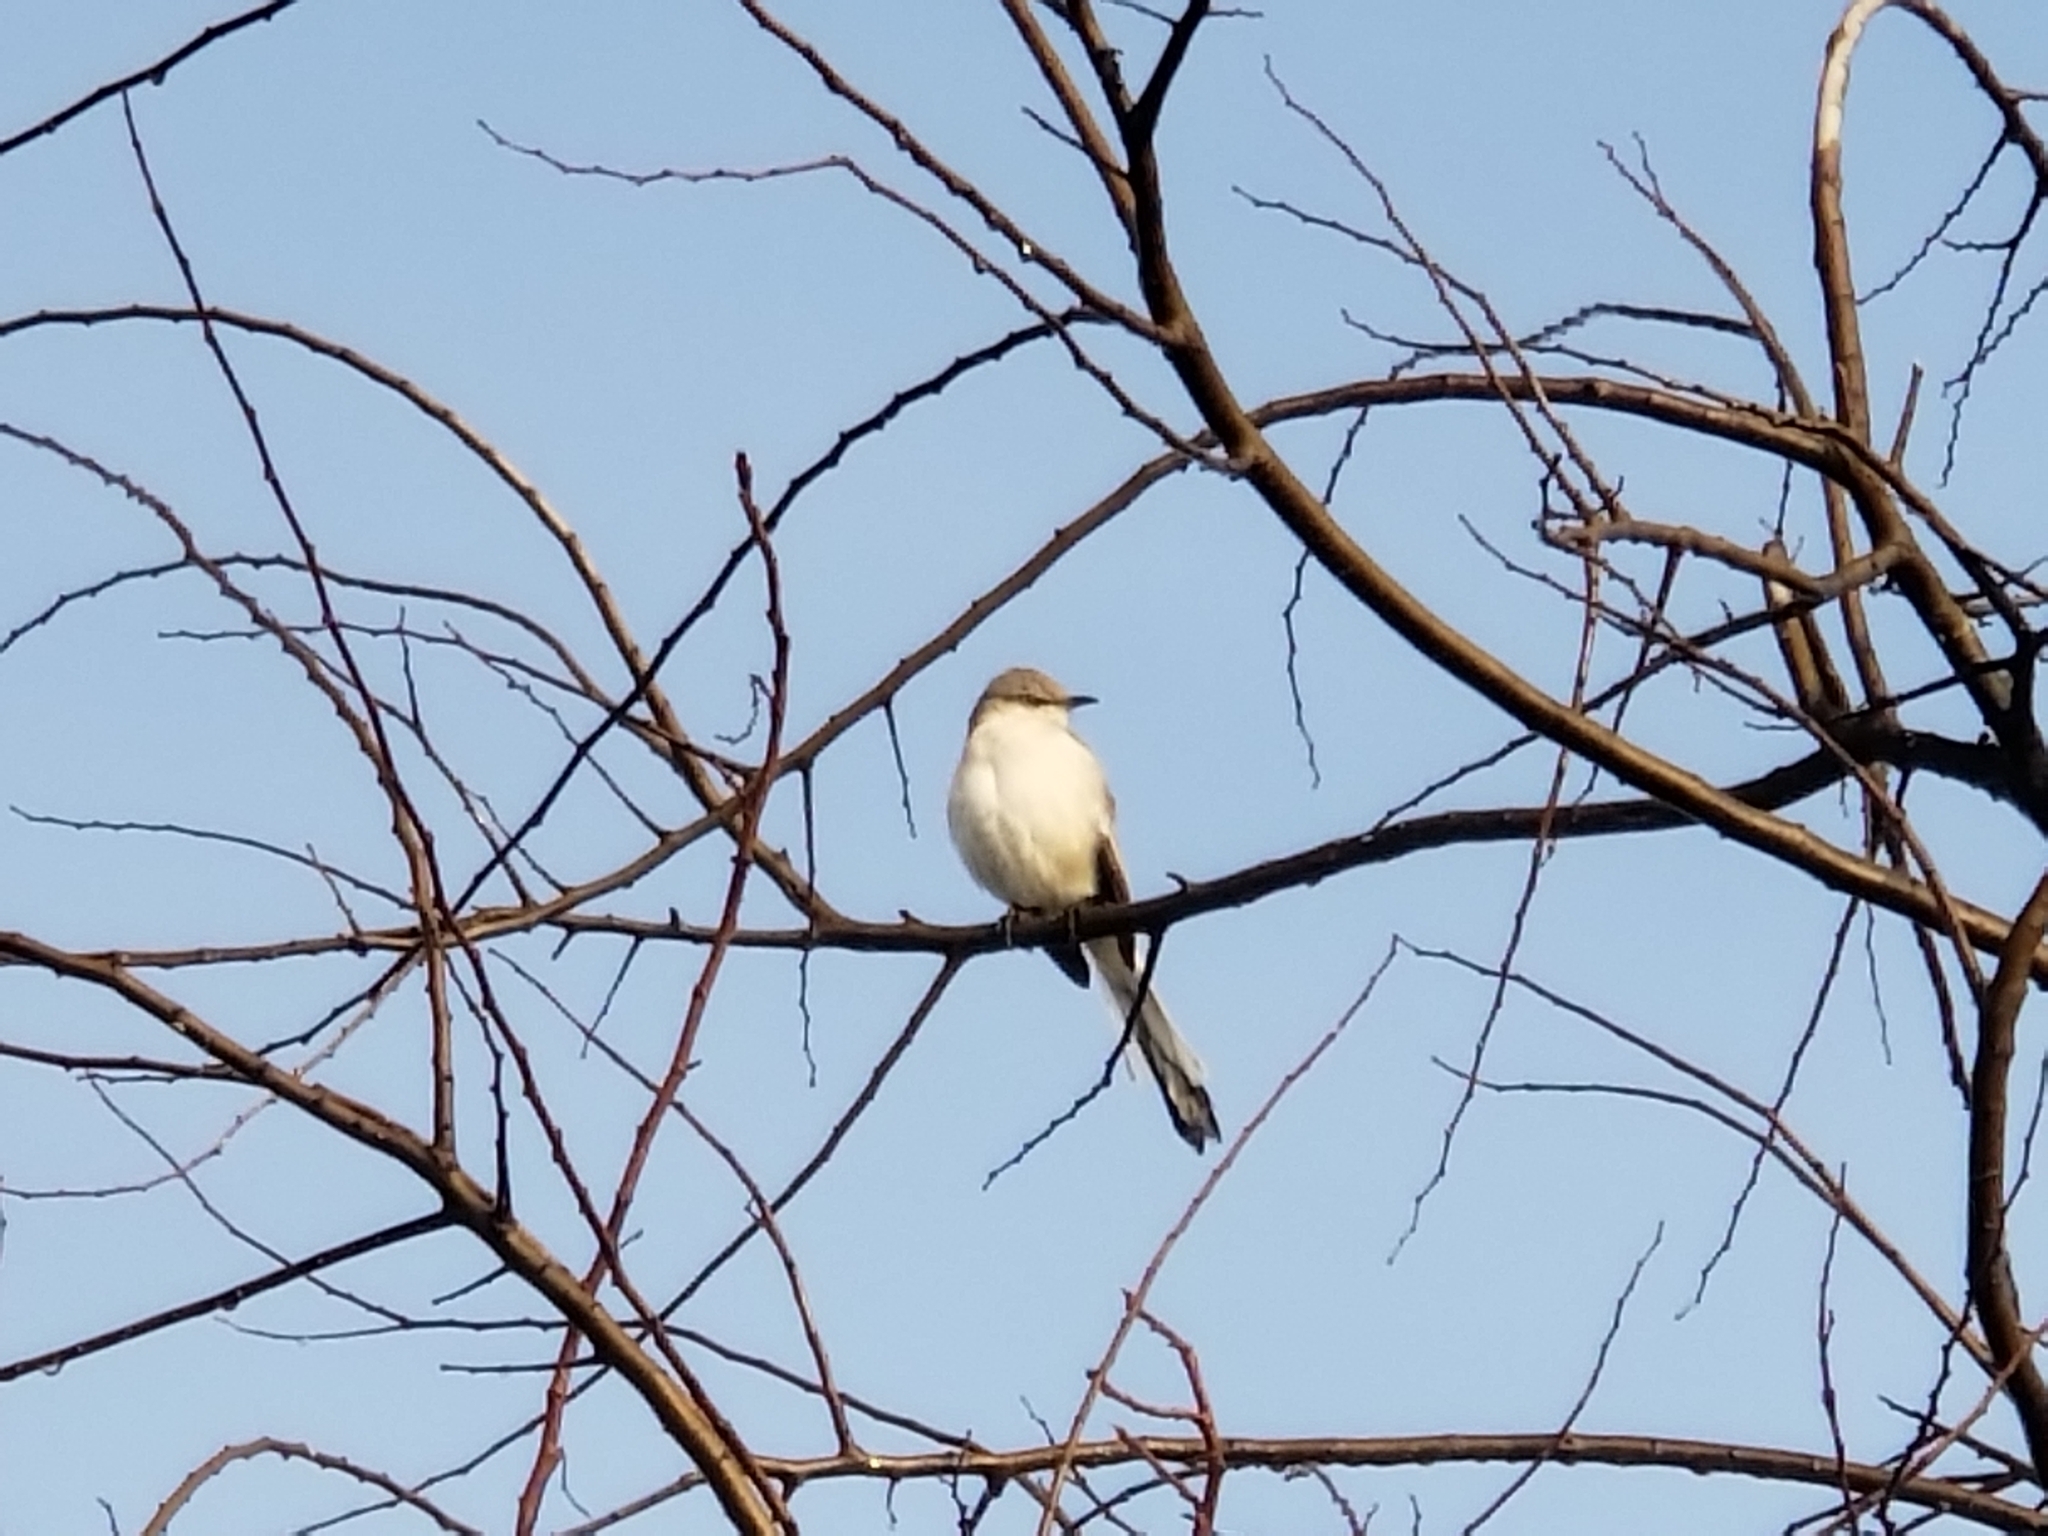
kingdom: Animalia
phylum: Chordata
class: Aves
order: Passeriformes
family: Mimidae
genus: Mimus
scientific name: Mimus polyglottos
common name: Northern mockingbird
